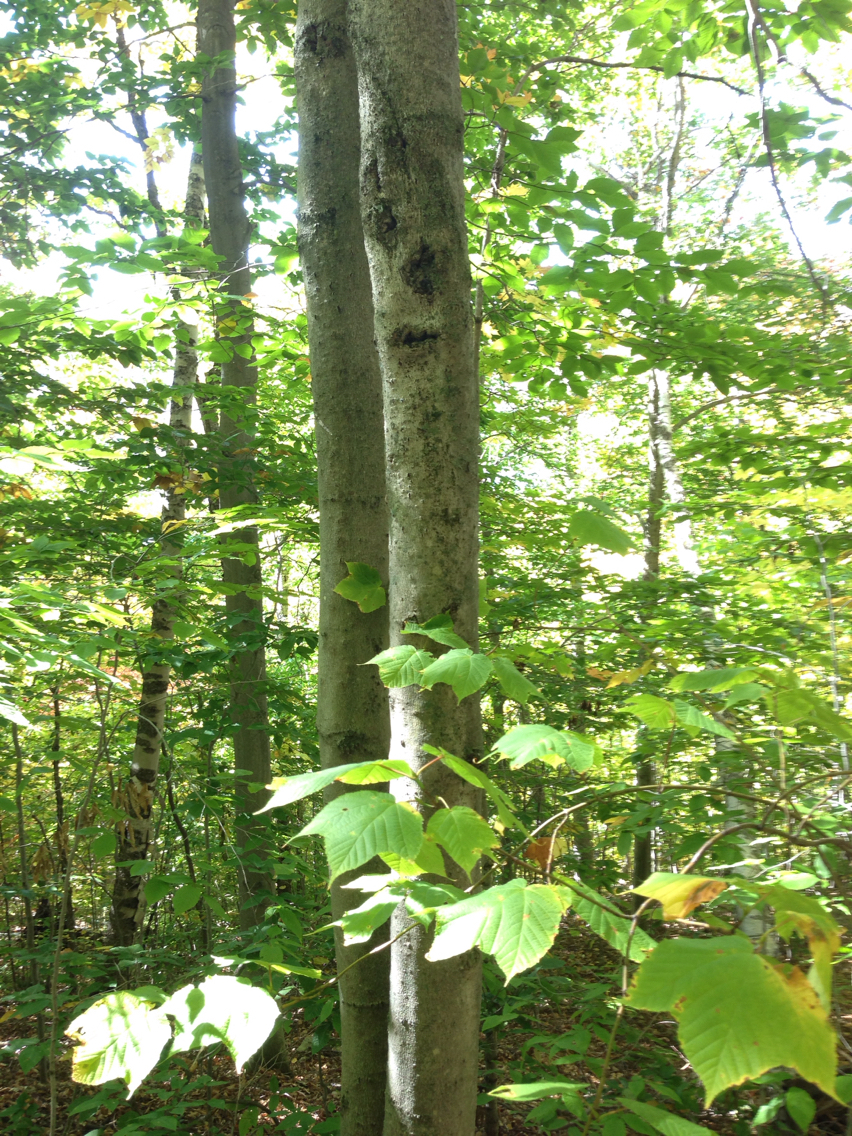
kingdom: Plantae
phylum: Tracheophyta
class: Magnoliopsida
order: Fagales
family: Fagaceae
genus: Fagus
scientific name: Fagus grandifolia
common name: American beech
